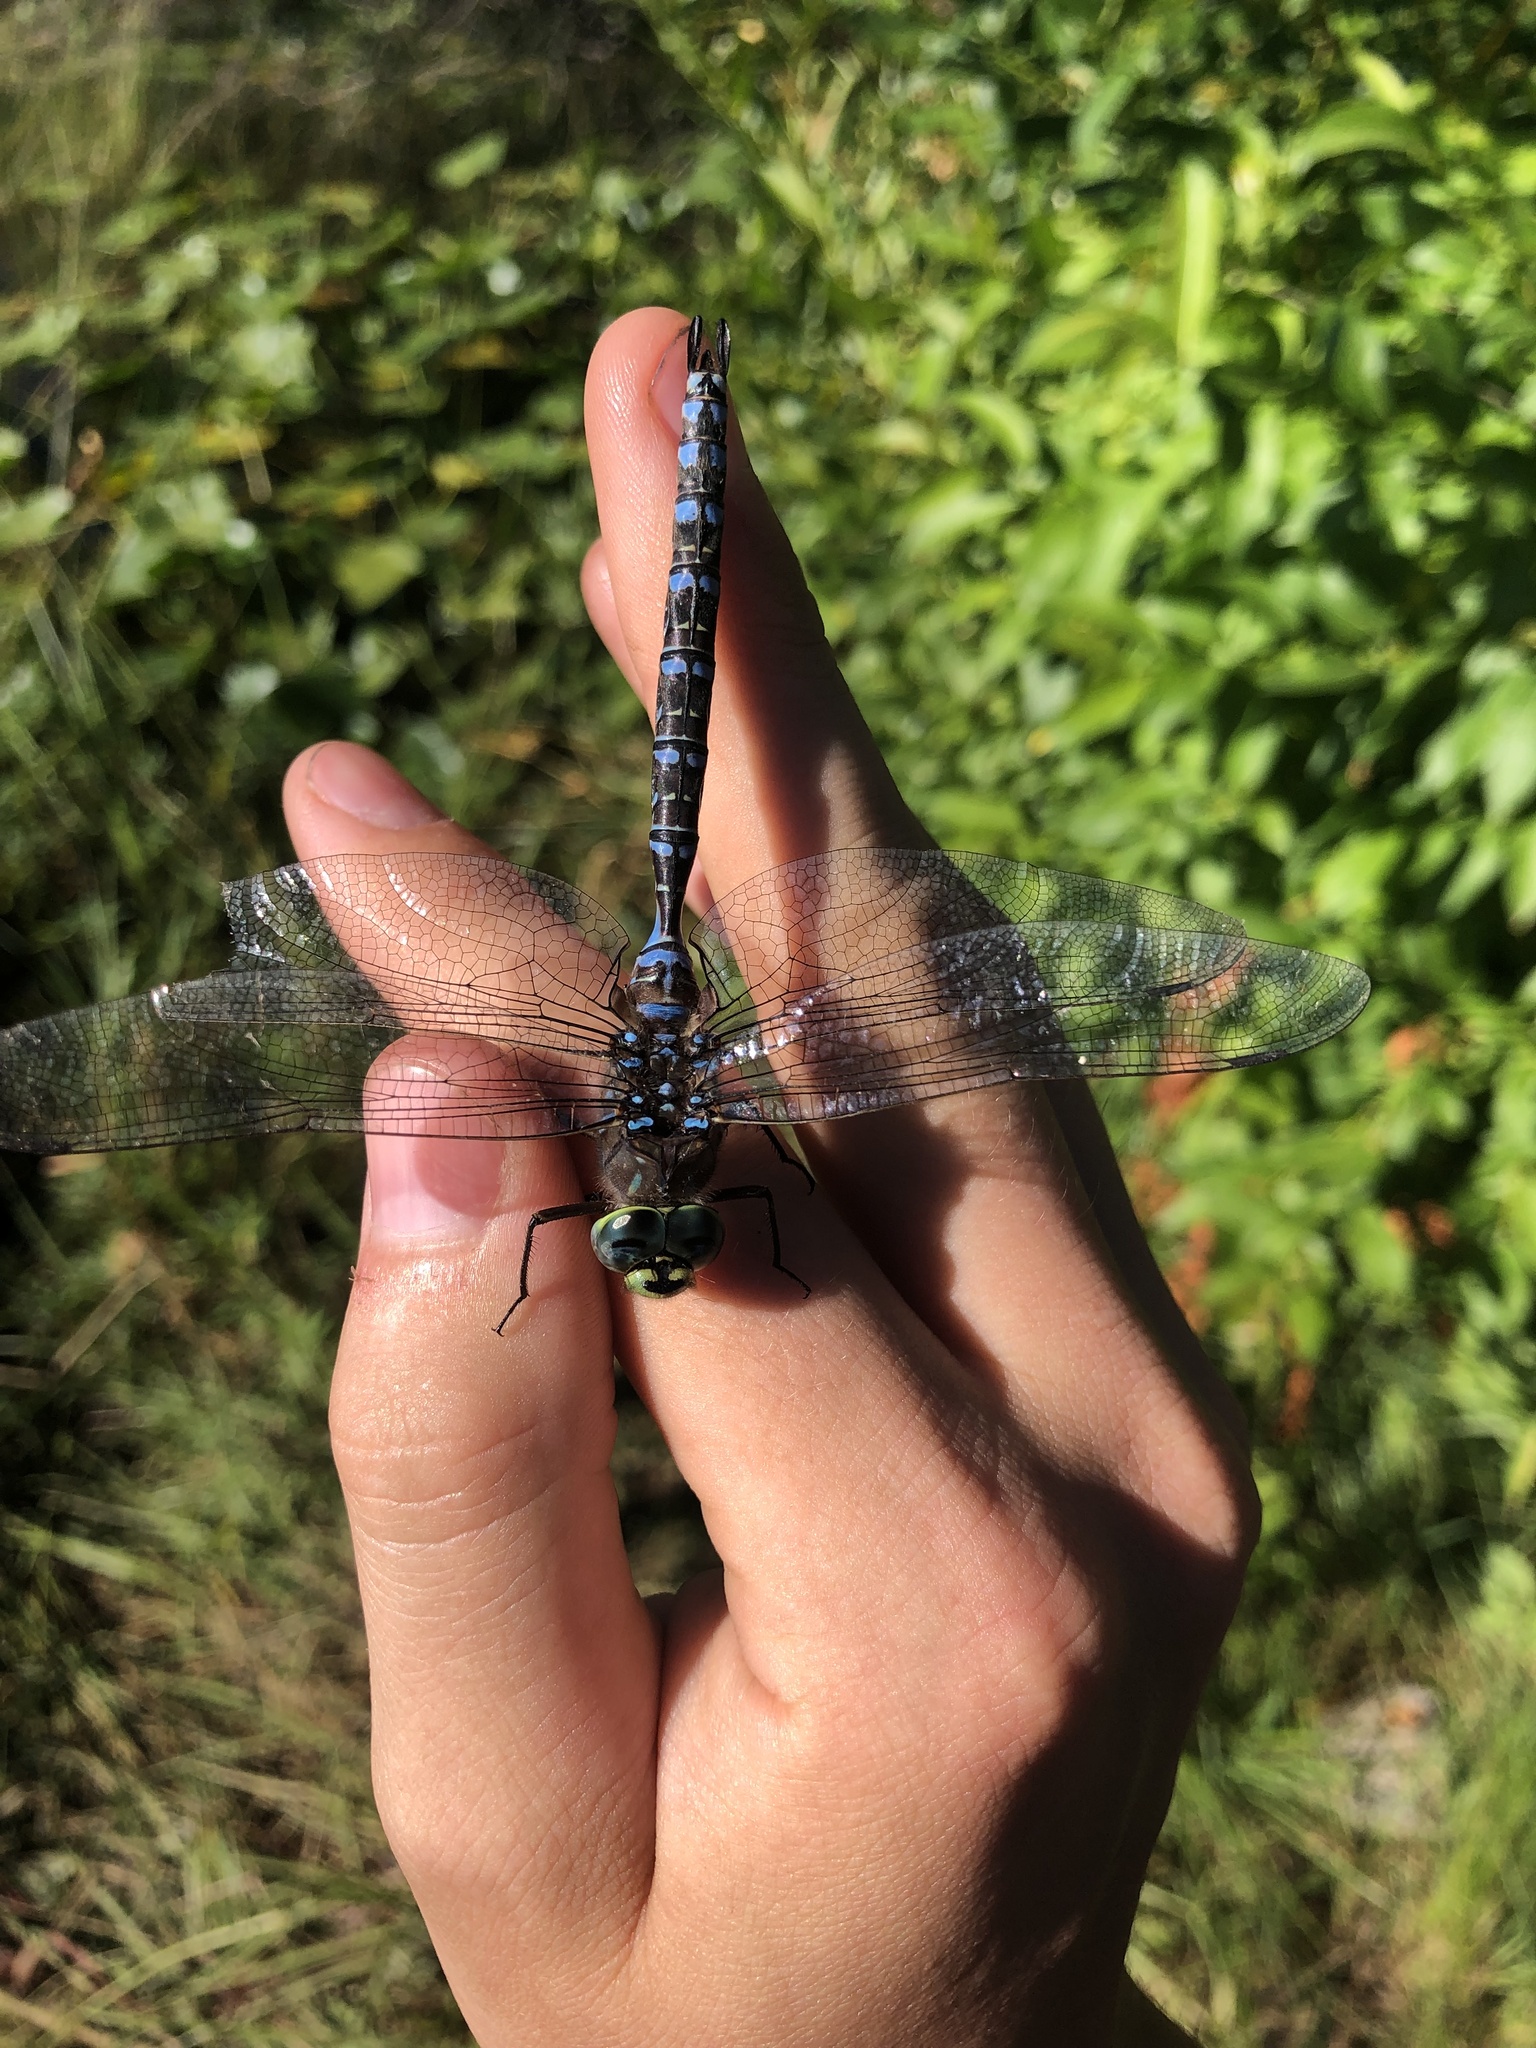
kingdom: Animalia
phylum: Arthropoda
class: Insecta
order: Odonata
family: Aeshnidae
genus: Aeshna
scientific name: Aeshna eremita
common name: Lake darner
